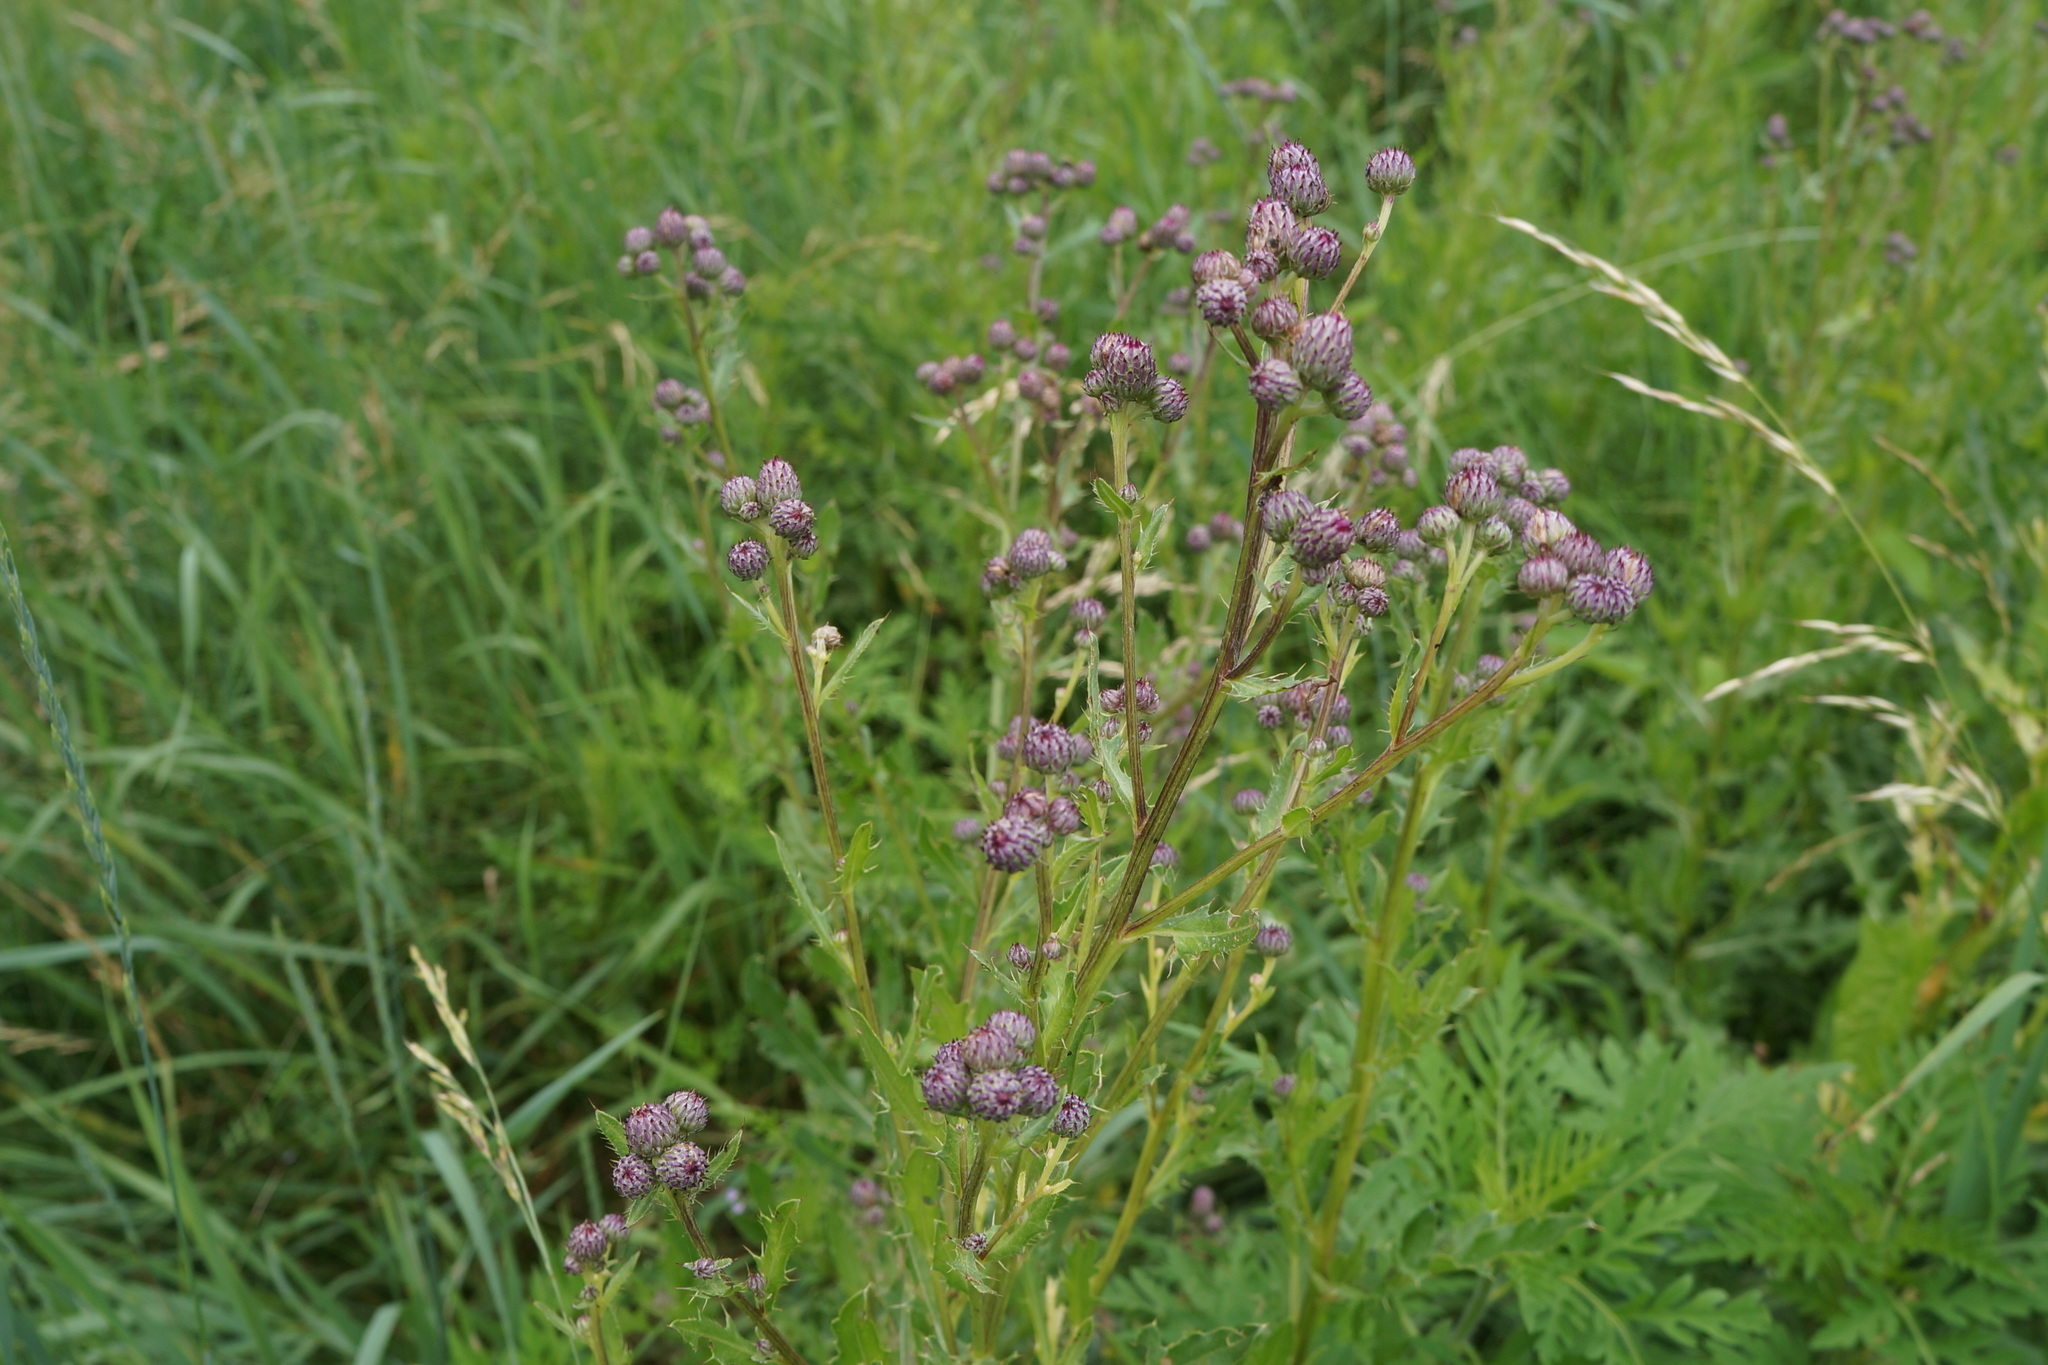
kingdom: Plantae
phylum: Tracheophyta
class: Magnoliopsida
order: Asterales
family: Asteraceae
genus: Cirsium
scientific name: Cirsium arvense
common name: Creeping thistle
